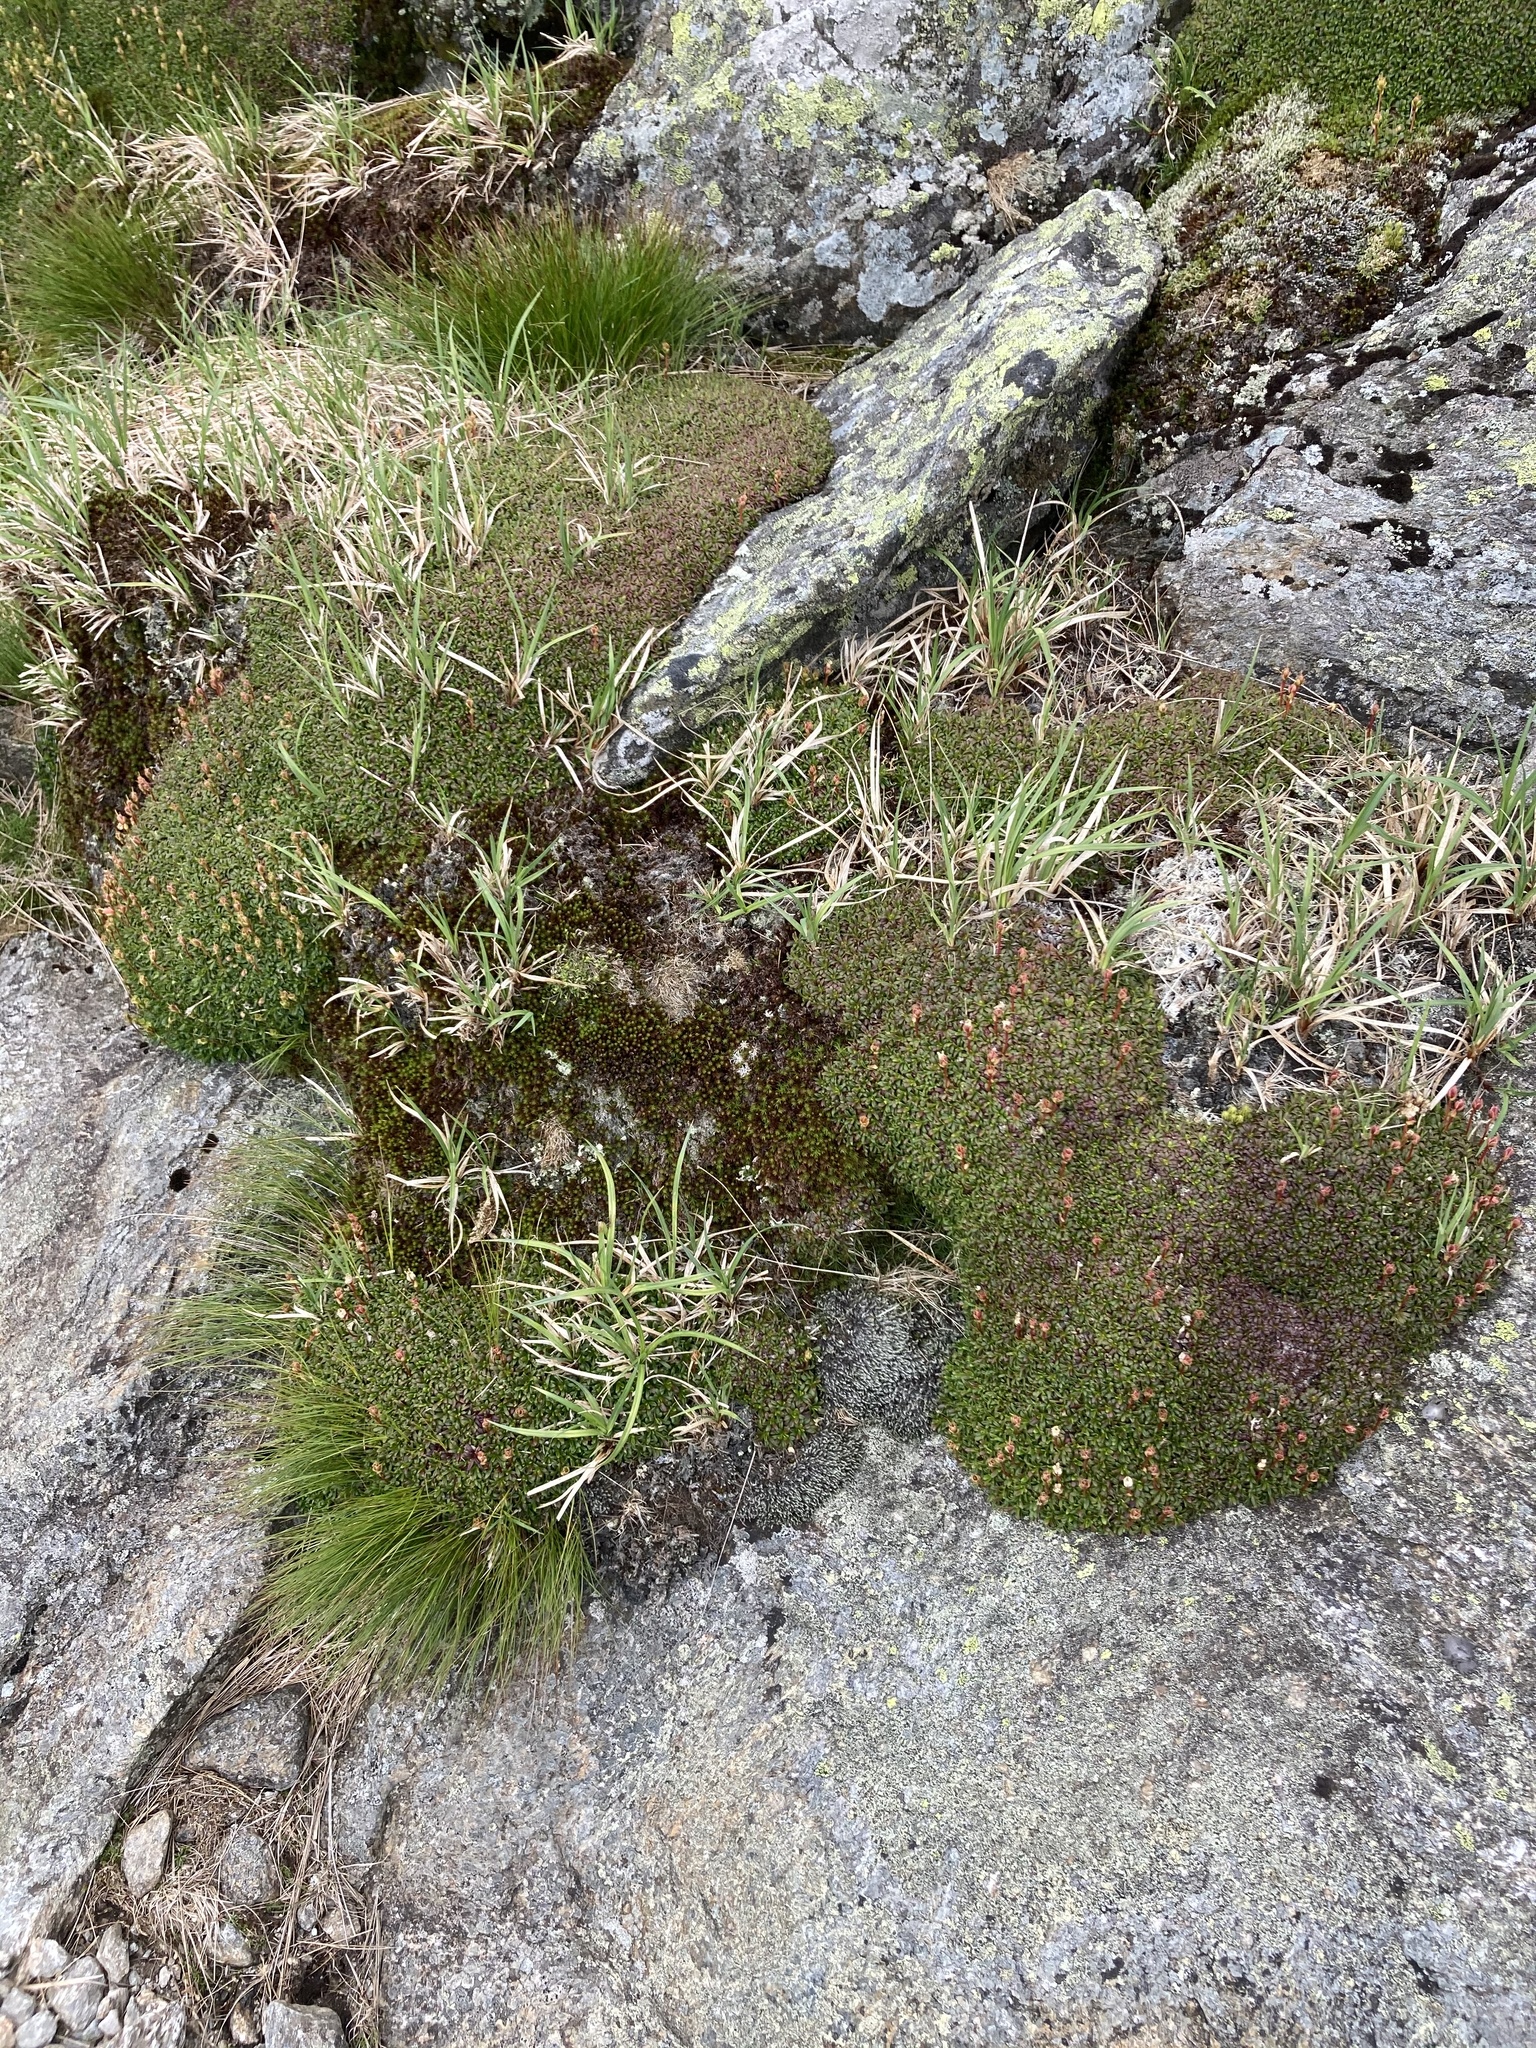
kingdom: Plantae
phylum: Tracheophyta
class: Magnoliopsida
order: Ericales
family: Diapensiaceae
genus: Diapensia
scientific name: Diapensia lapponica
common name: Diapensia
